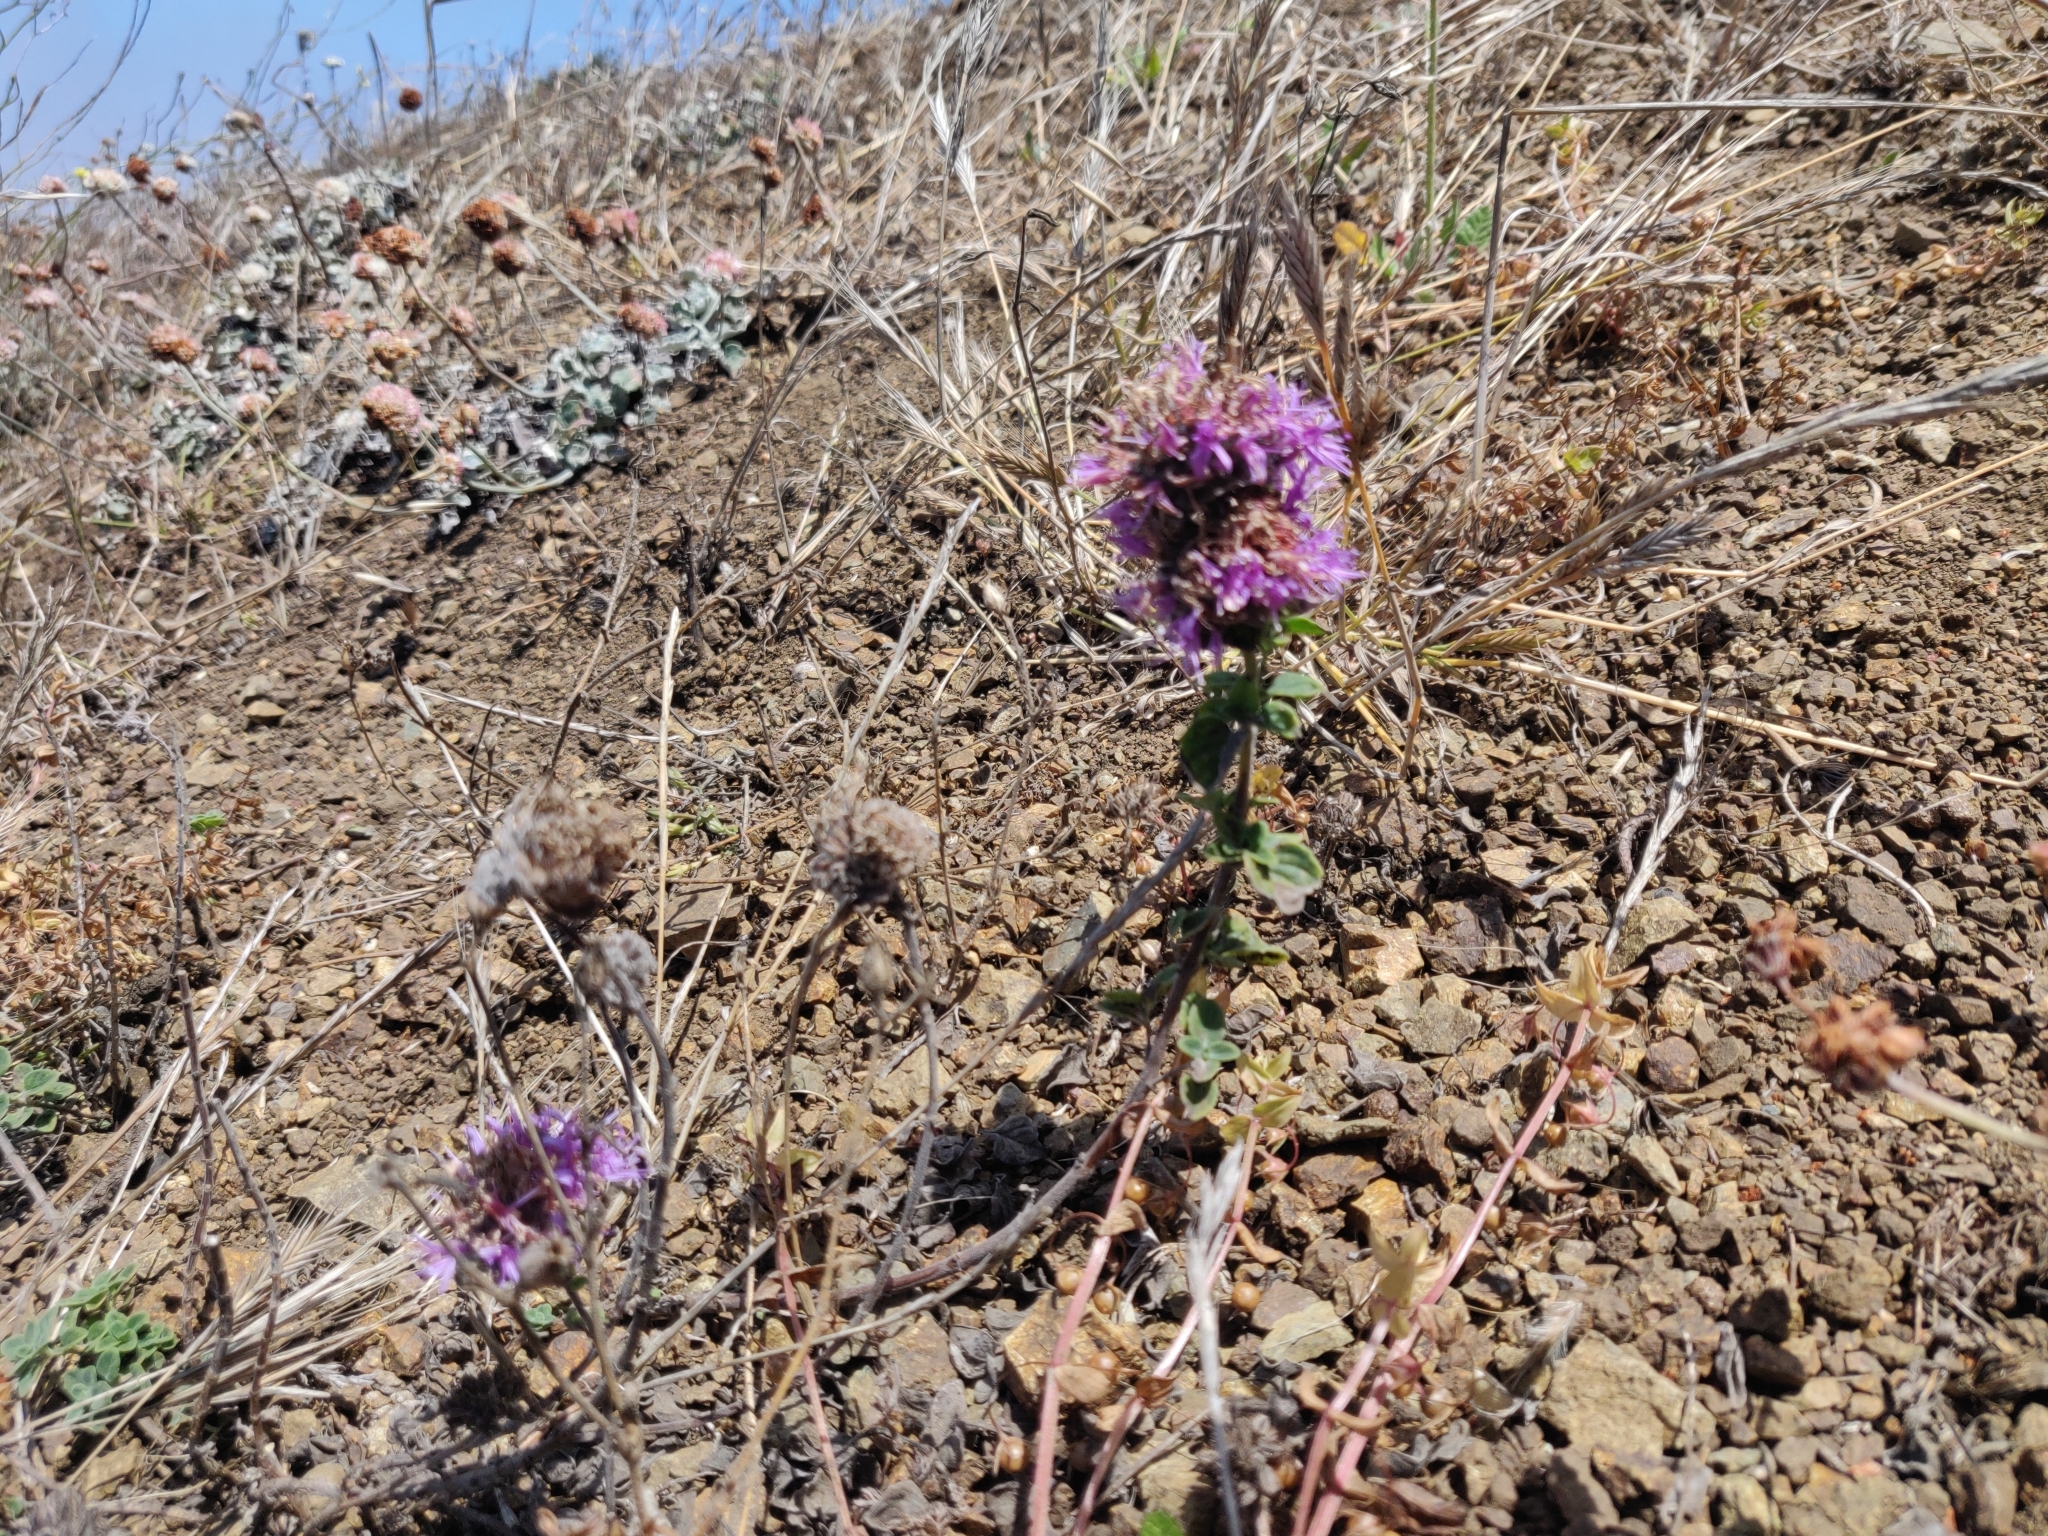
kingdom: Plantae
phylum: Tracheophyta
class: Magnoliopsida
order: Lamiales
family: Lamiaceae
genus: Monardella
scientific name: Monardella odoratissima
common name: Pacific monardella
